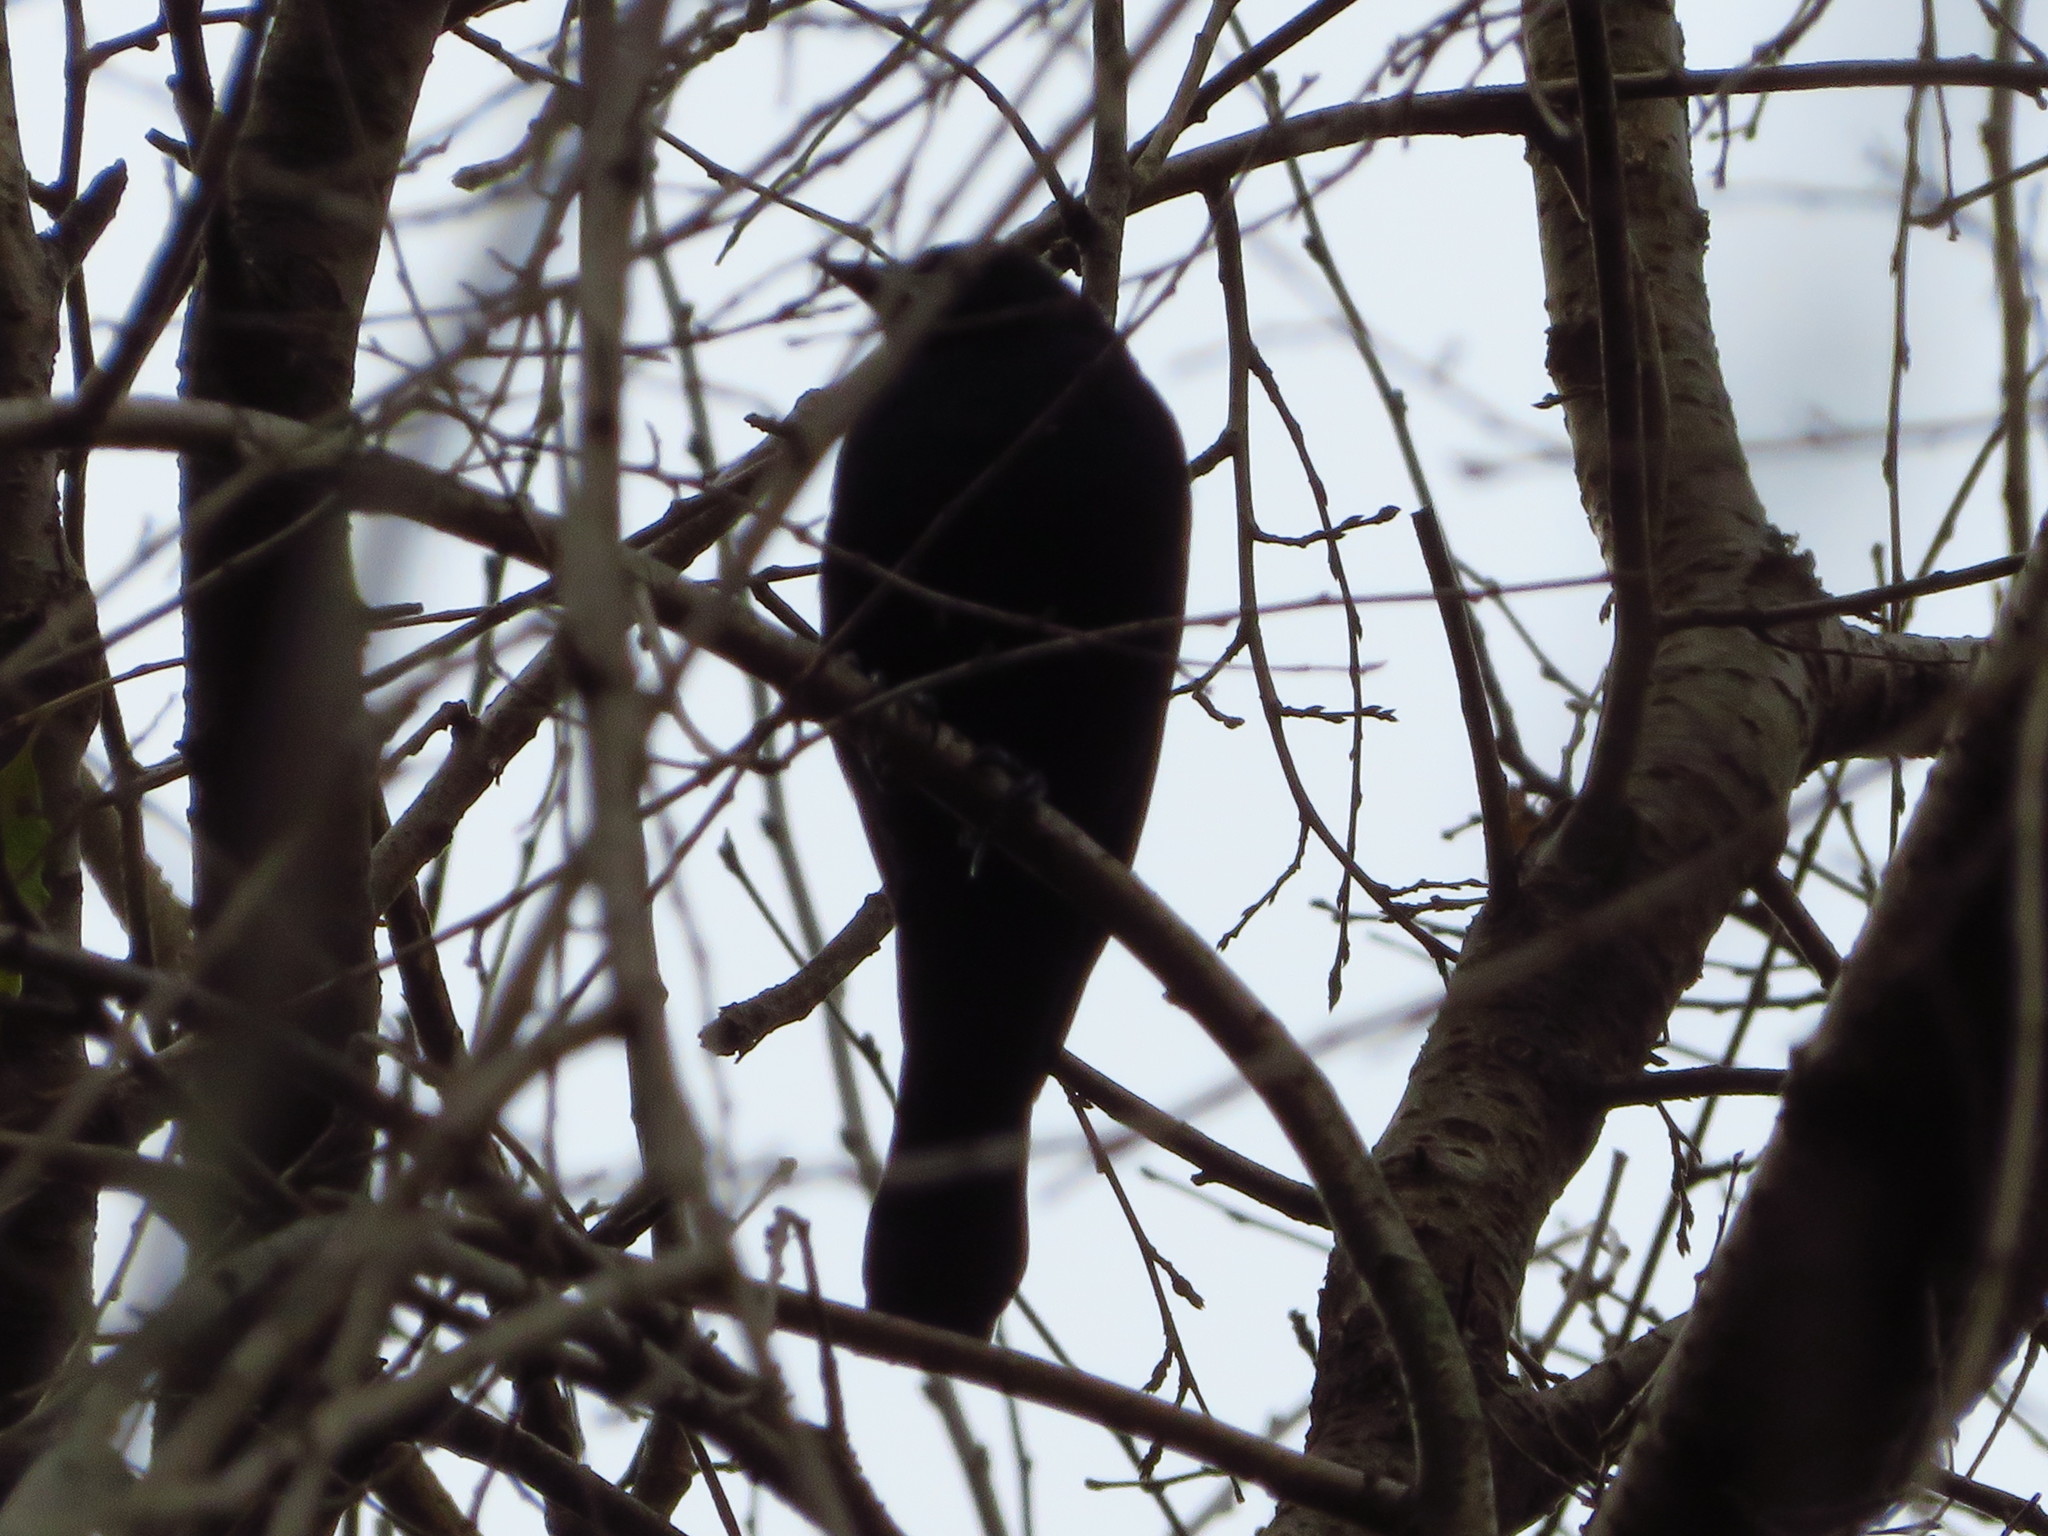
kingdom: Animalia
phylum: Chordata
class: Aves
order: Passeriformes
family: Icteridae
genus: Agelaius
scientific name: Agelaius phoeniceus
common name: Red-winged blackbird
